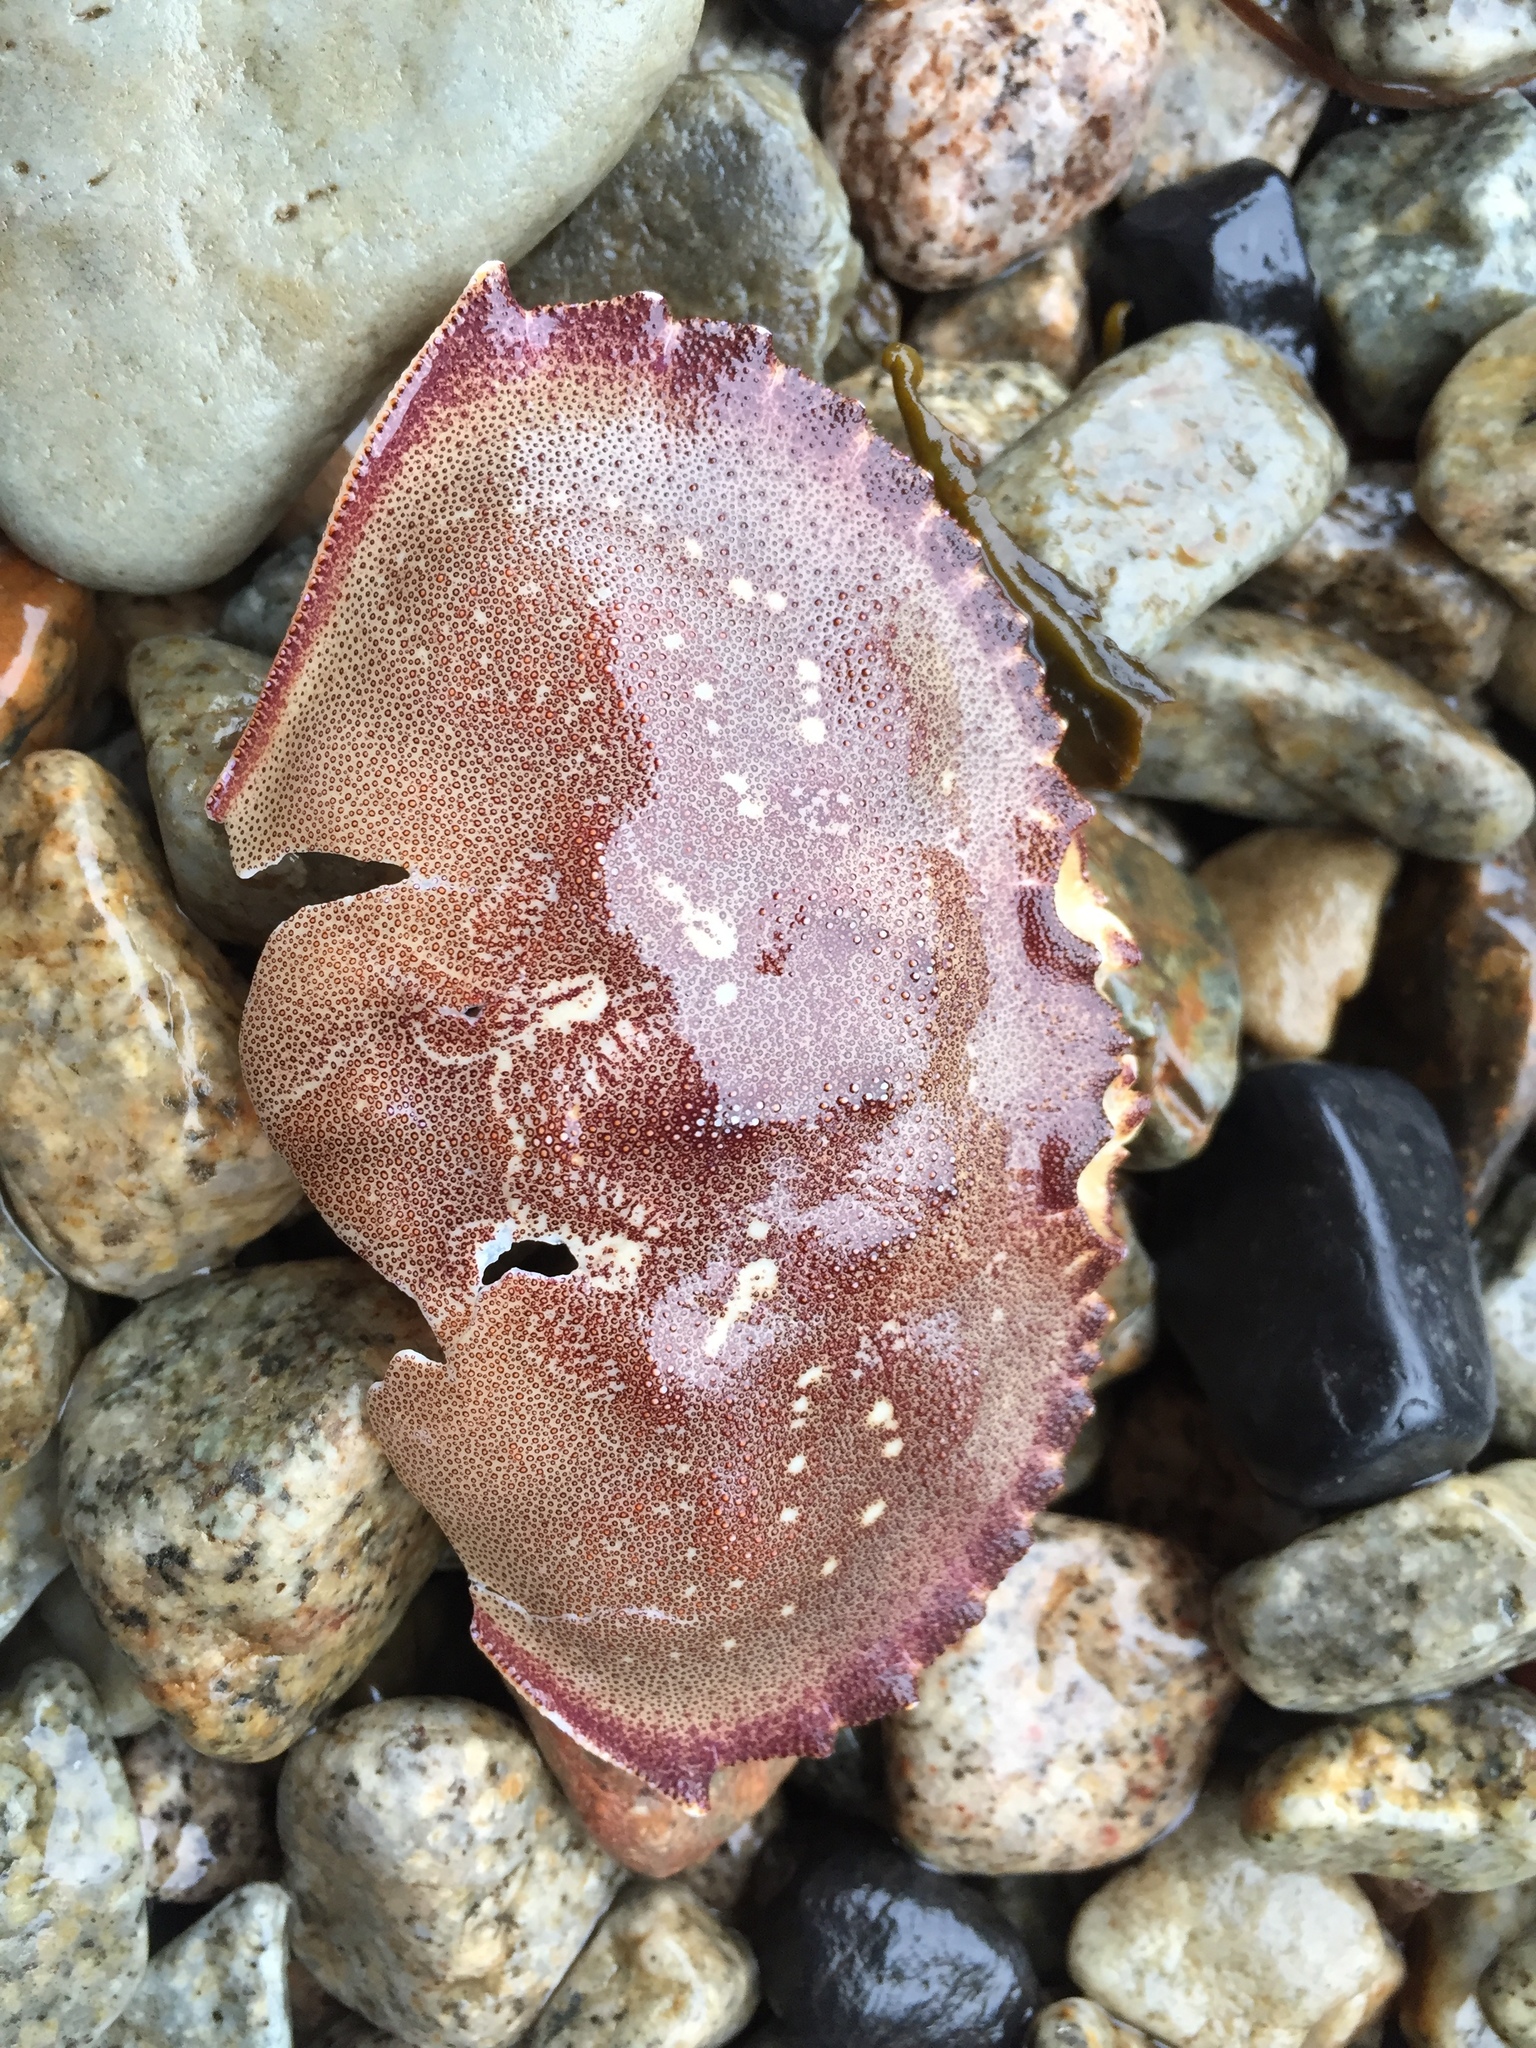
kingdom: Animalia
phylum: Arthropoda
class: Malacostraca
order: Decapoda
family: Cancridae
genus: Metacarcinus
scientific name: Metacarcinus magister
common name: Californian crab
